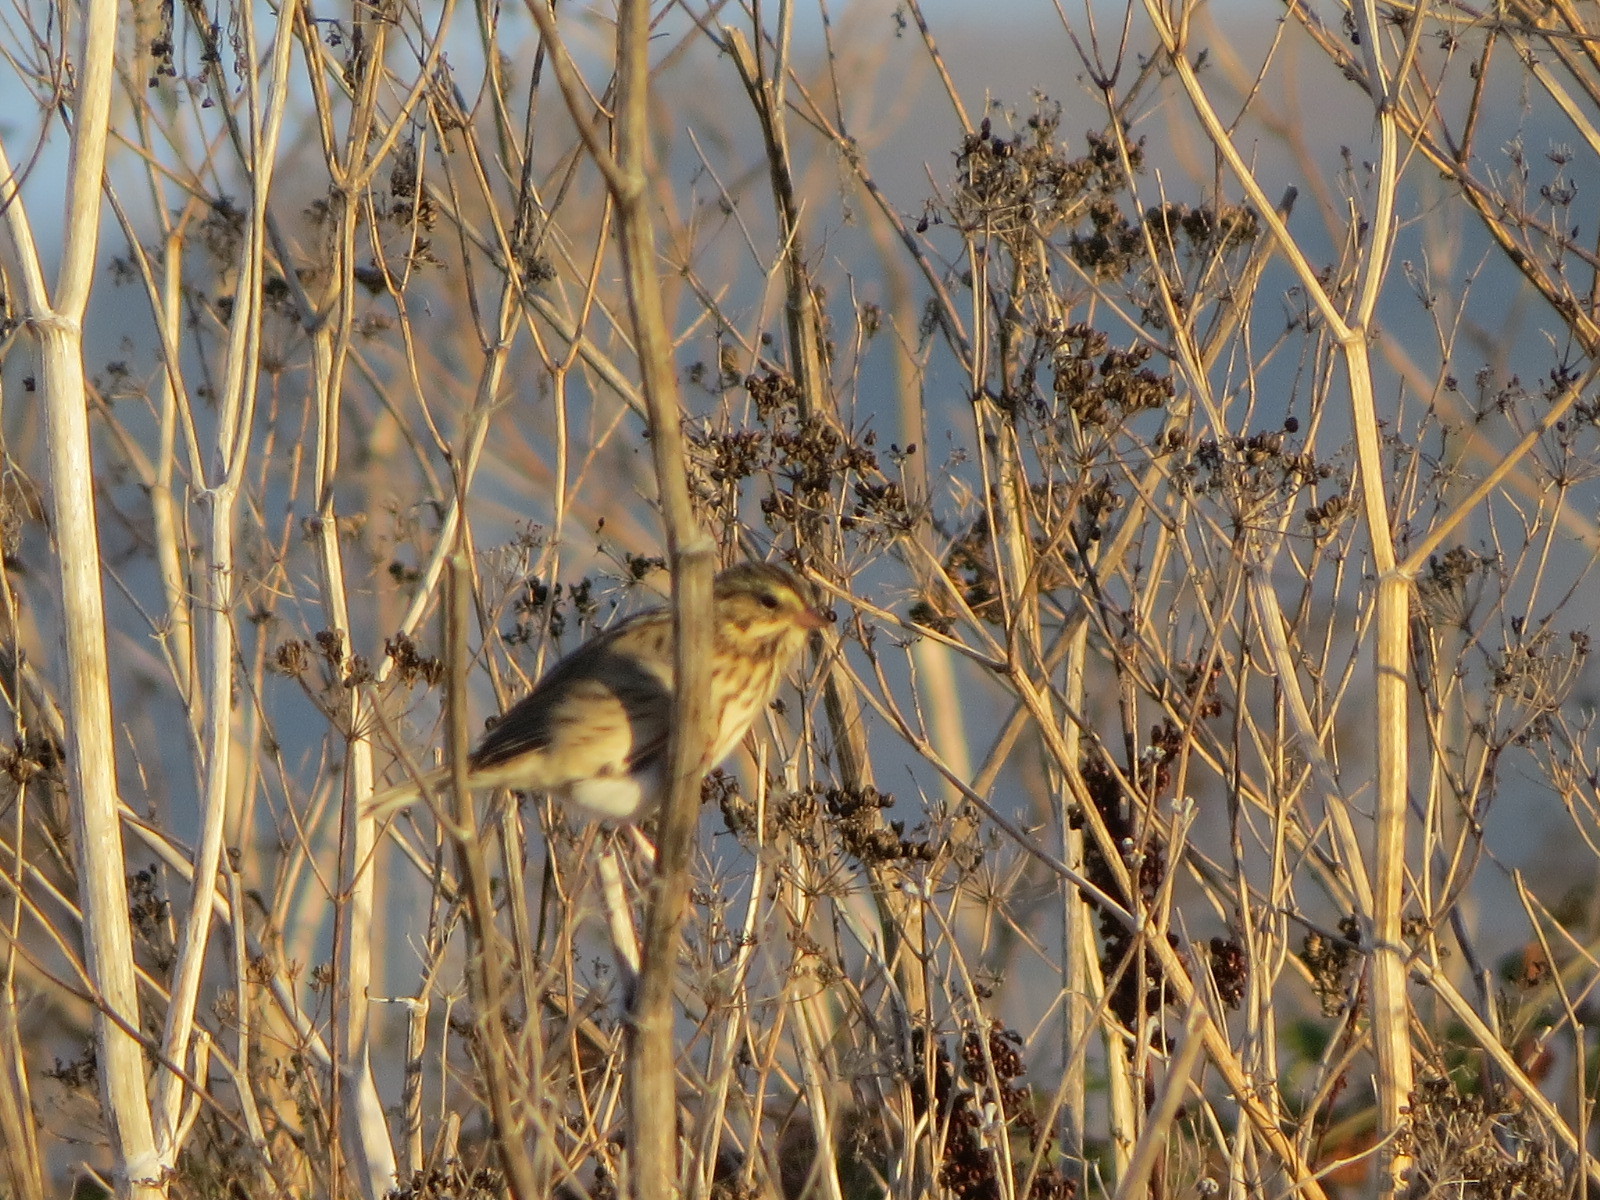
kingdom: Animalia
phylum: Chordata
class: Aves
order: Passeriformes
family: Passerellidae
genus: Passerculus
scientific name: Passerculus sandwichensis
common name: Savannah sparrow
